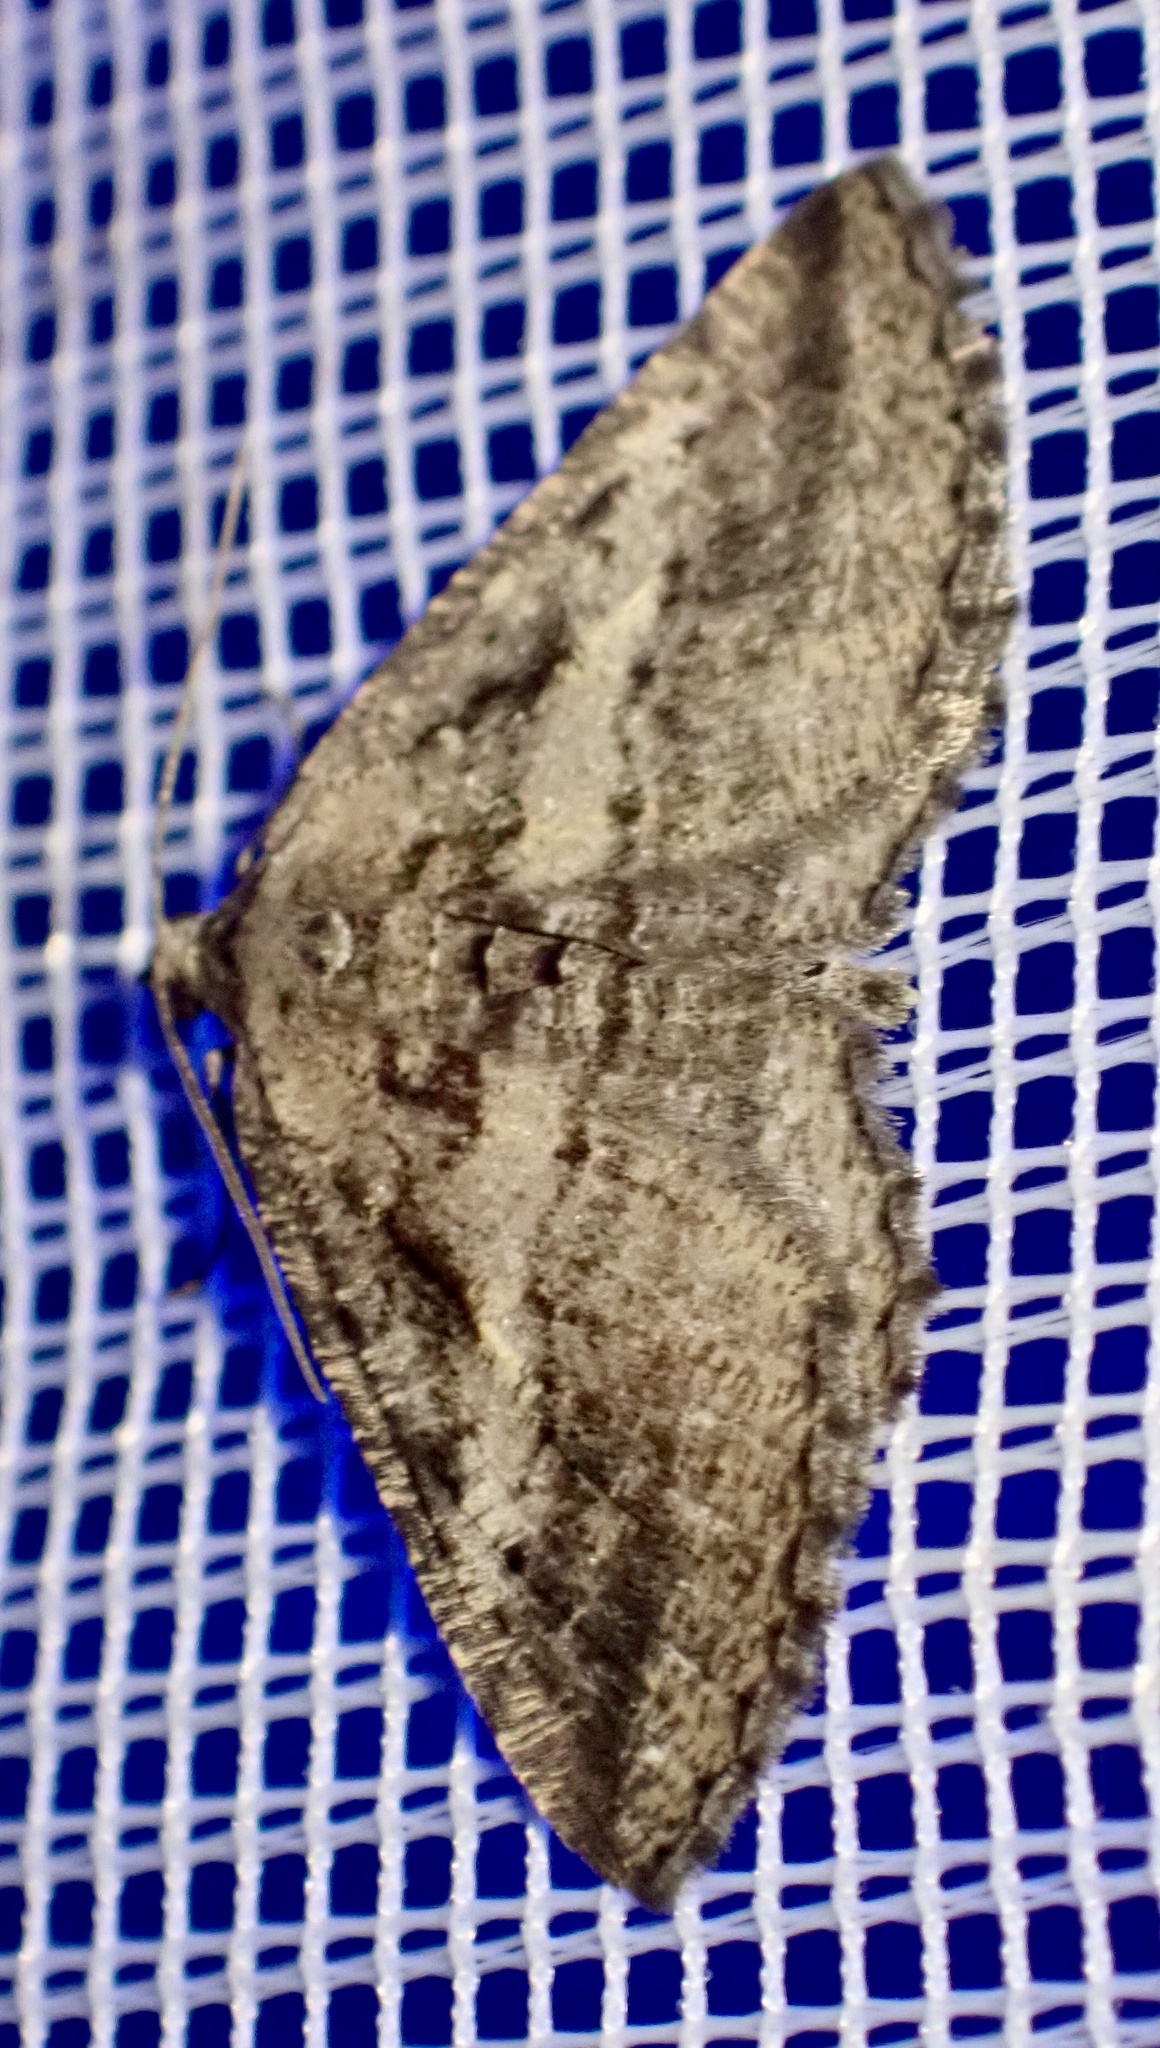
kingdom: Animalia
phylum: Arthropoda
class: Insecta
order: Lepidoptera
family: Geometridae
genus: Rhoptria
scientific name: Rhoptria asperaria
